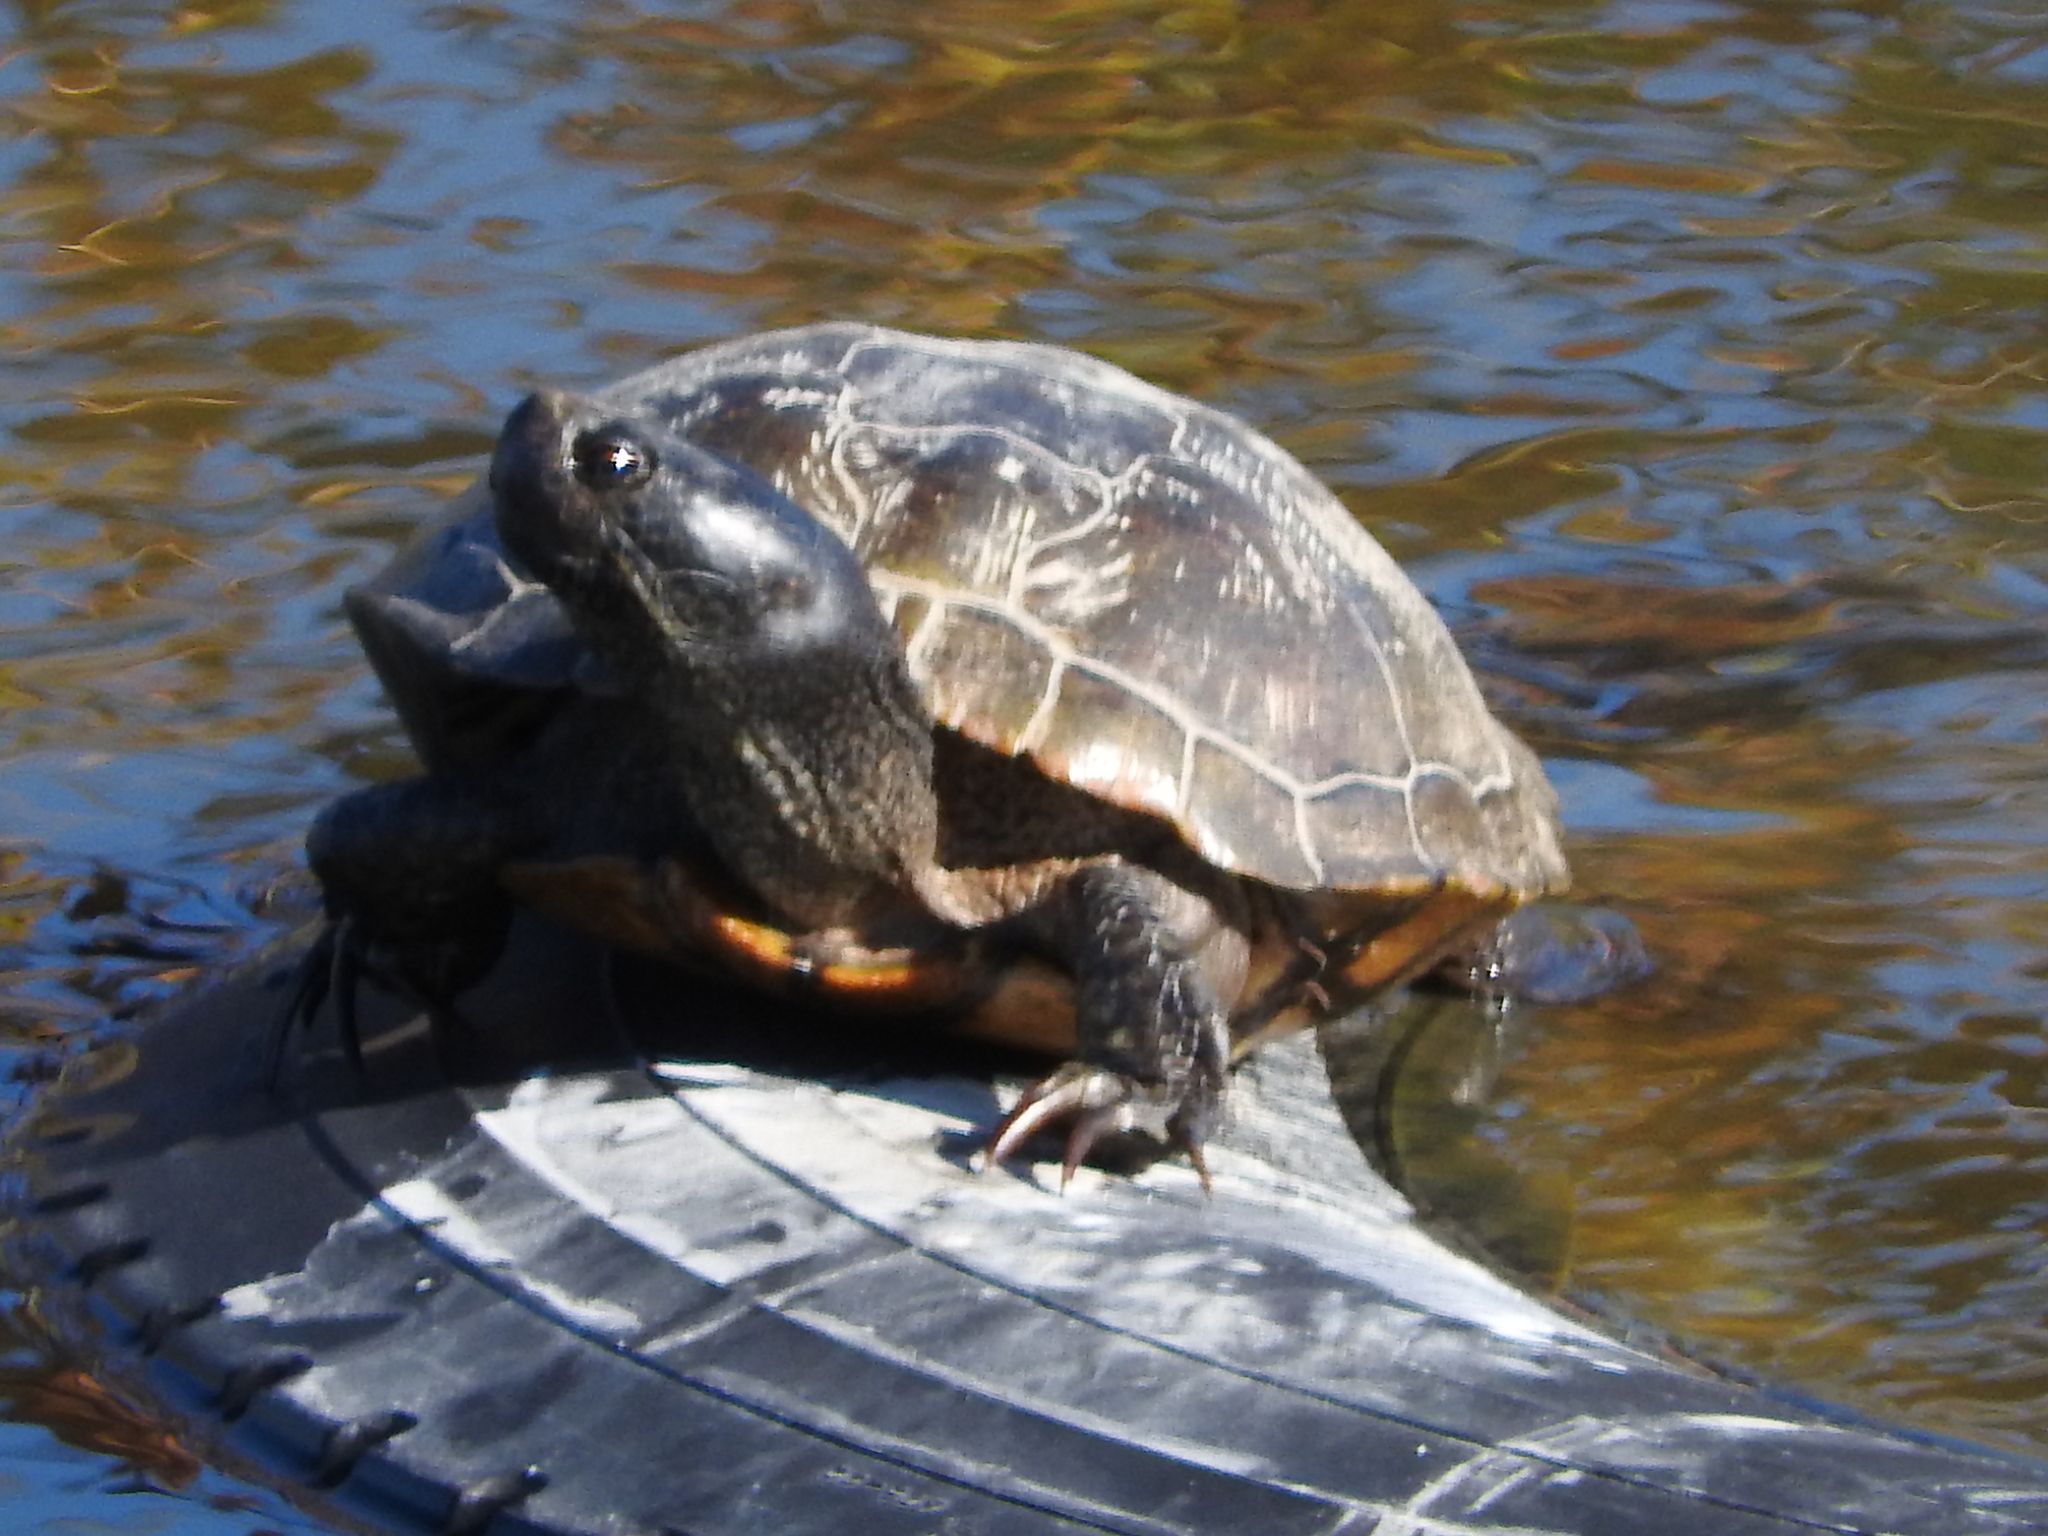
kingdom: Animalia
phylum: Chordata
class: Testudines
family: Emydidae
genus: Trachemys
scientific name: Trachemys scripta
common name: Slider
